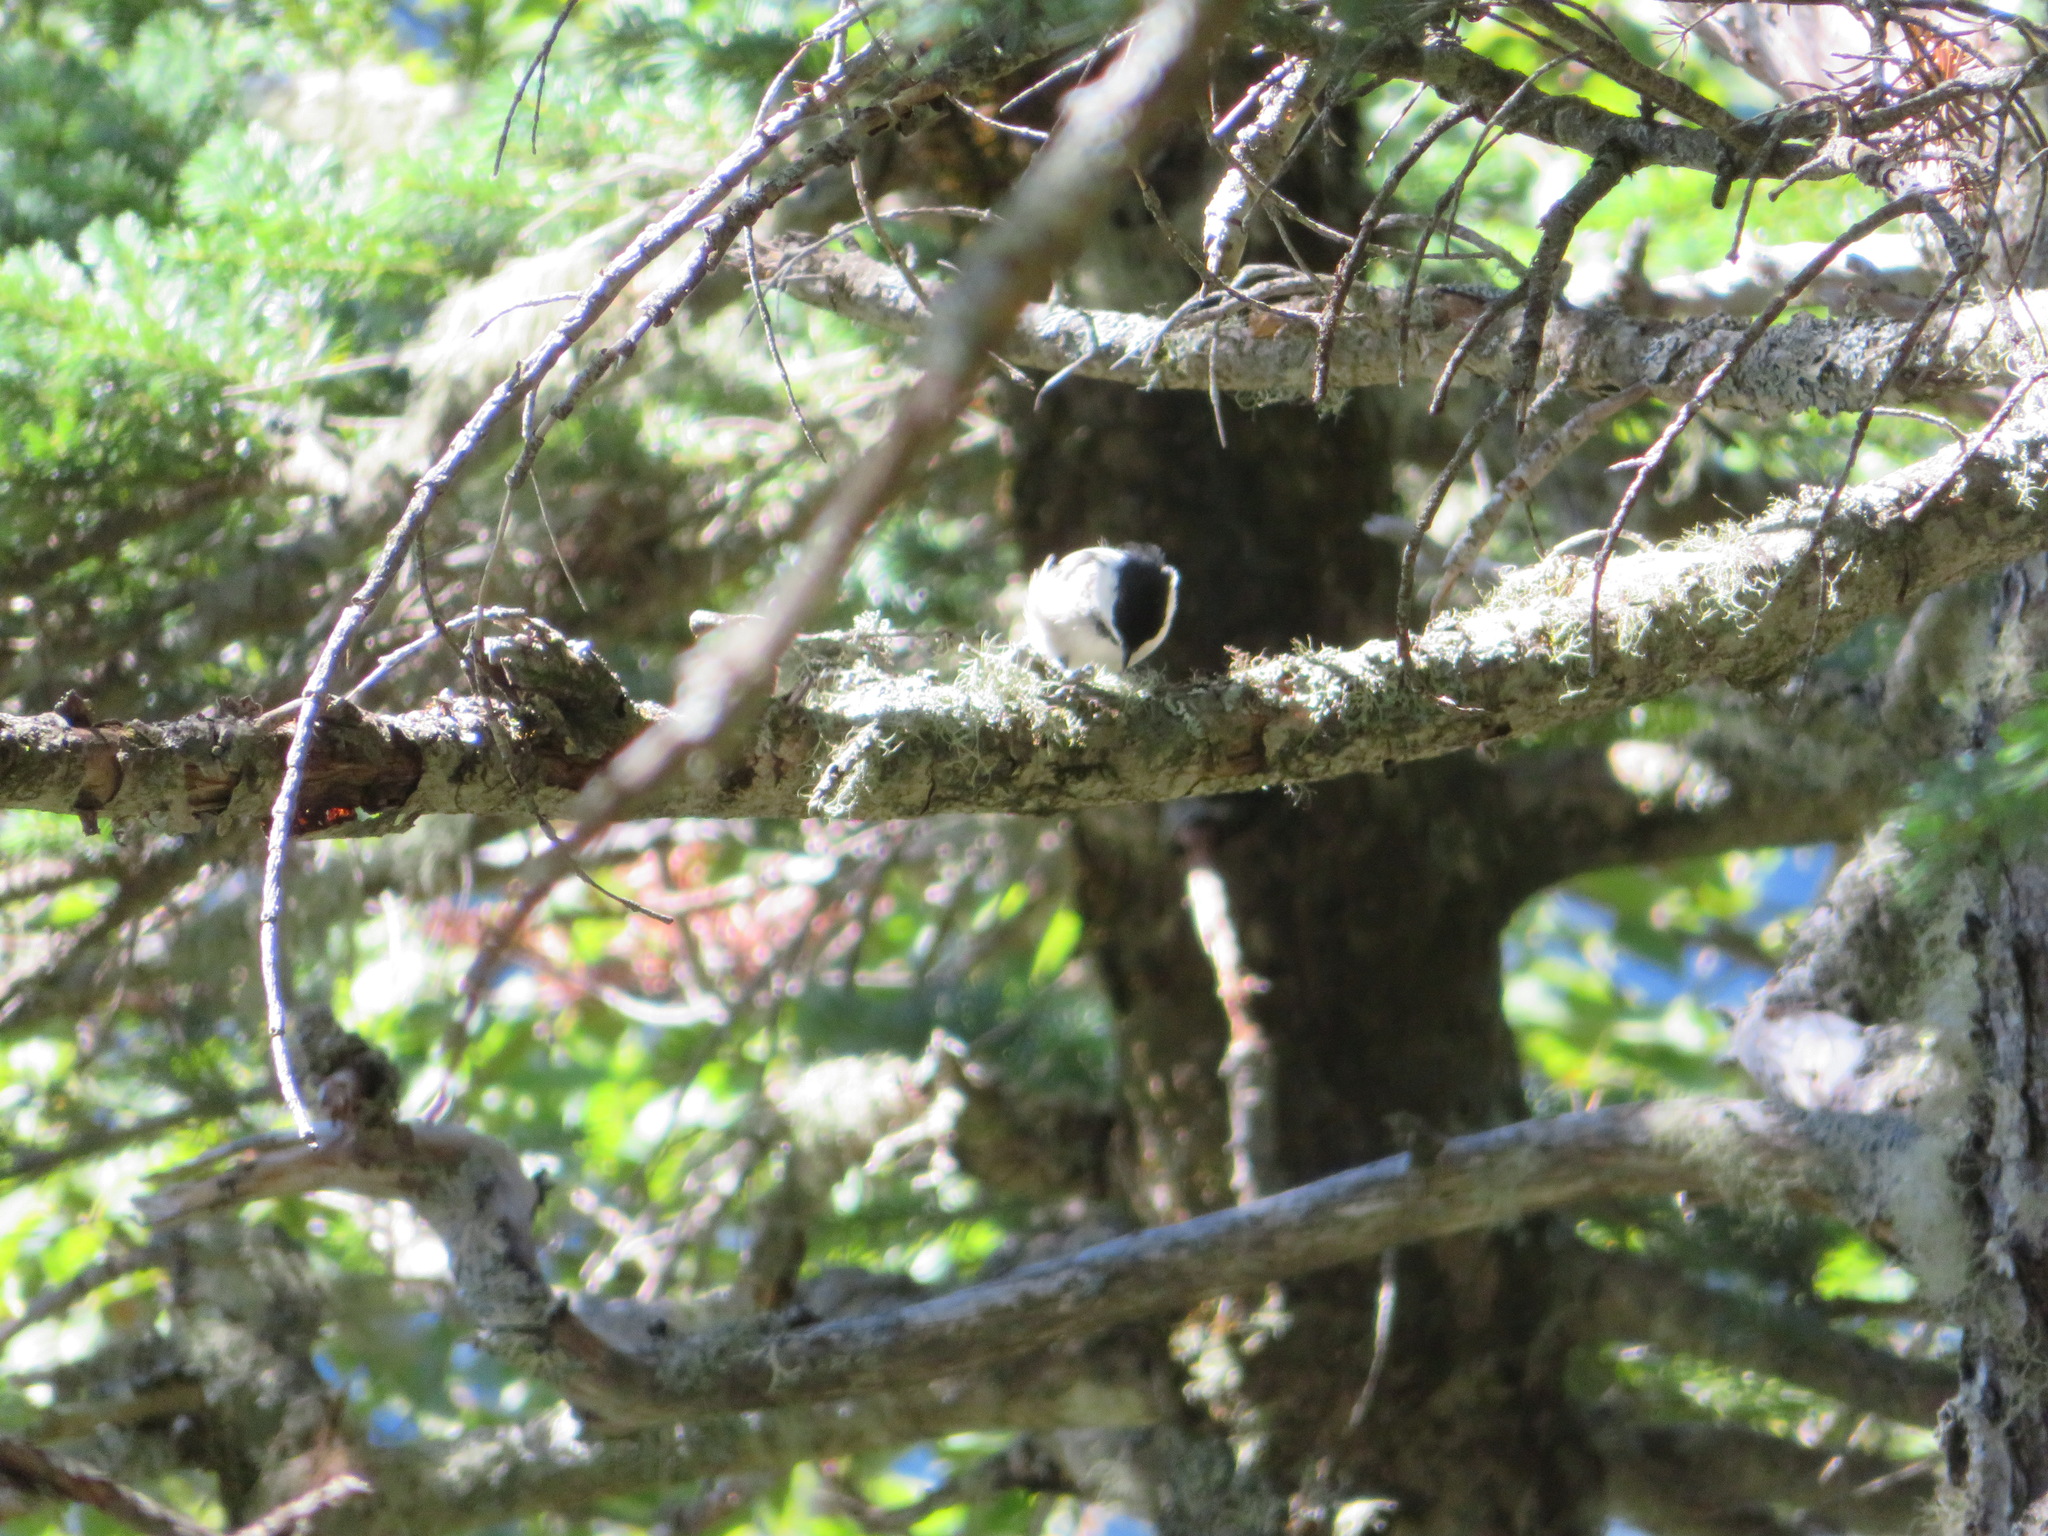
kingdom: Animalia
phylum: Chordata
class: Aves
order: Passeriformes
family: Paridae
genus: Poecile
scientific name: Poecile montanus
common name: Willow tit
